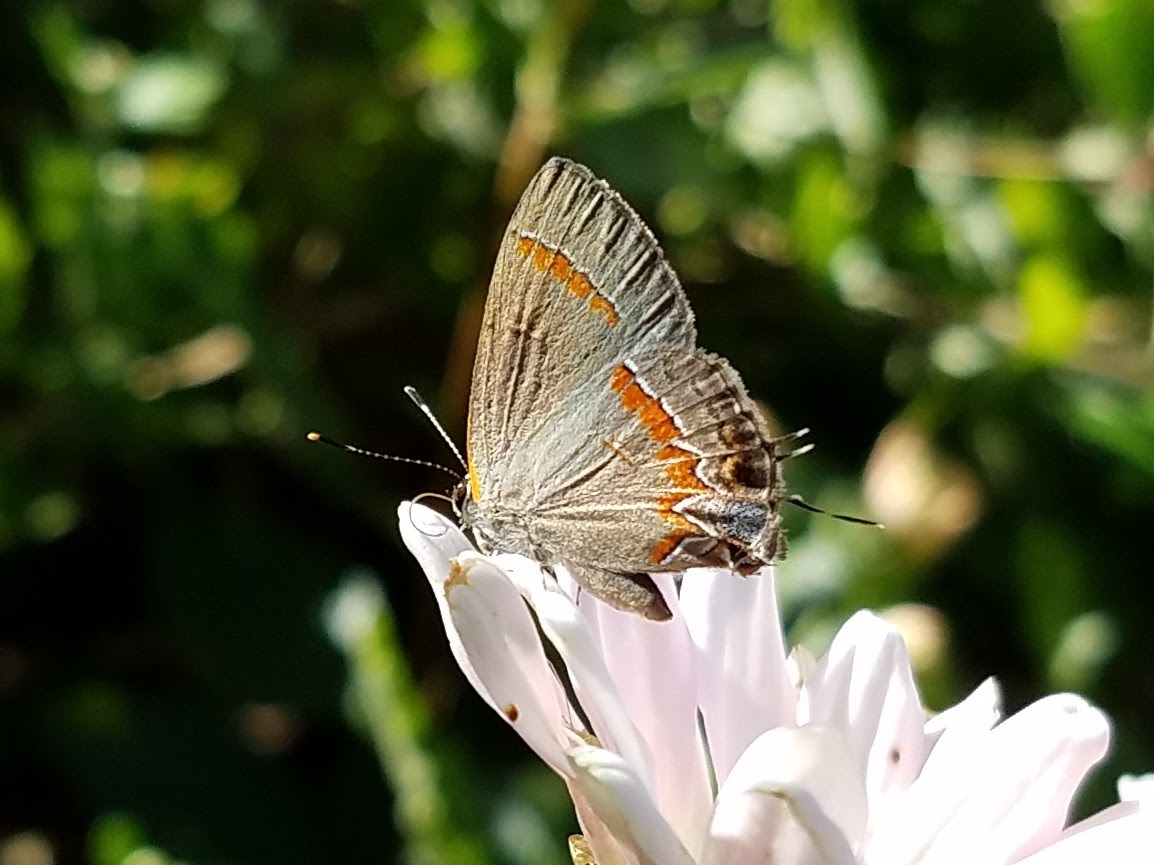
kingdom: Animalia
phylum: Arthropoda
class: Insecta
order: Lepidoptera
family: Lycaenidae
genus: Calycopis
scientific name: Calycopis cecrops
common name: Red-banded hairstreak
